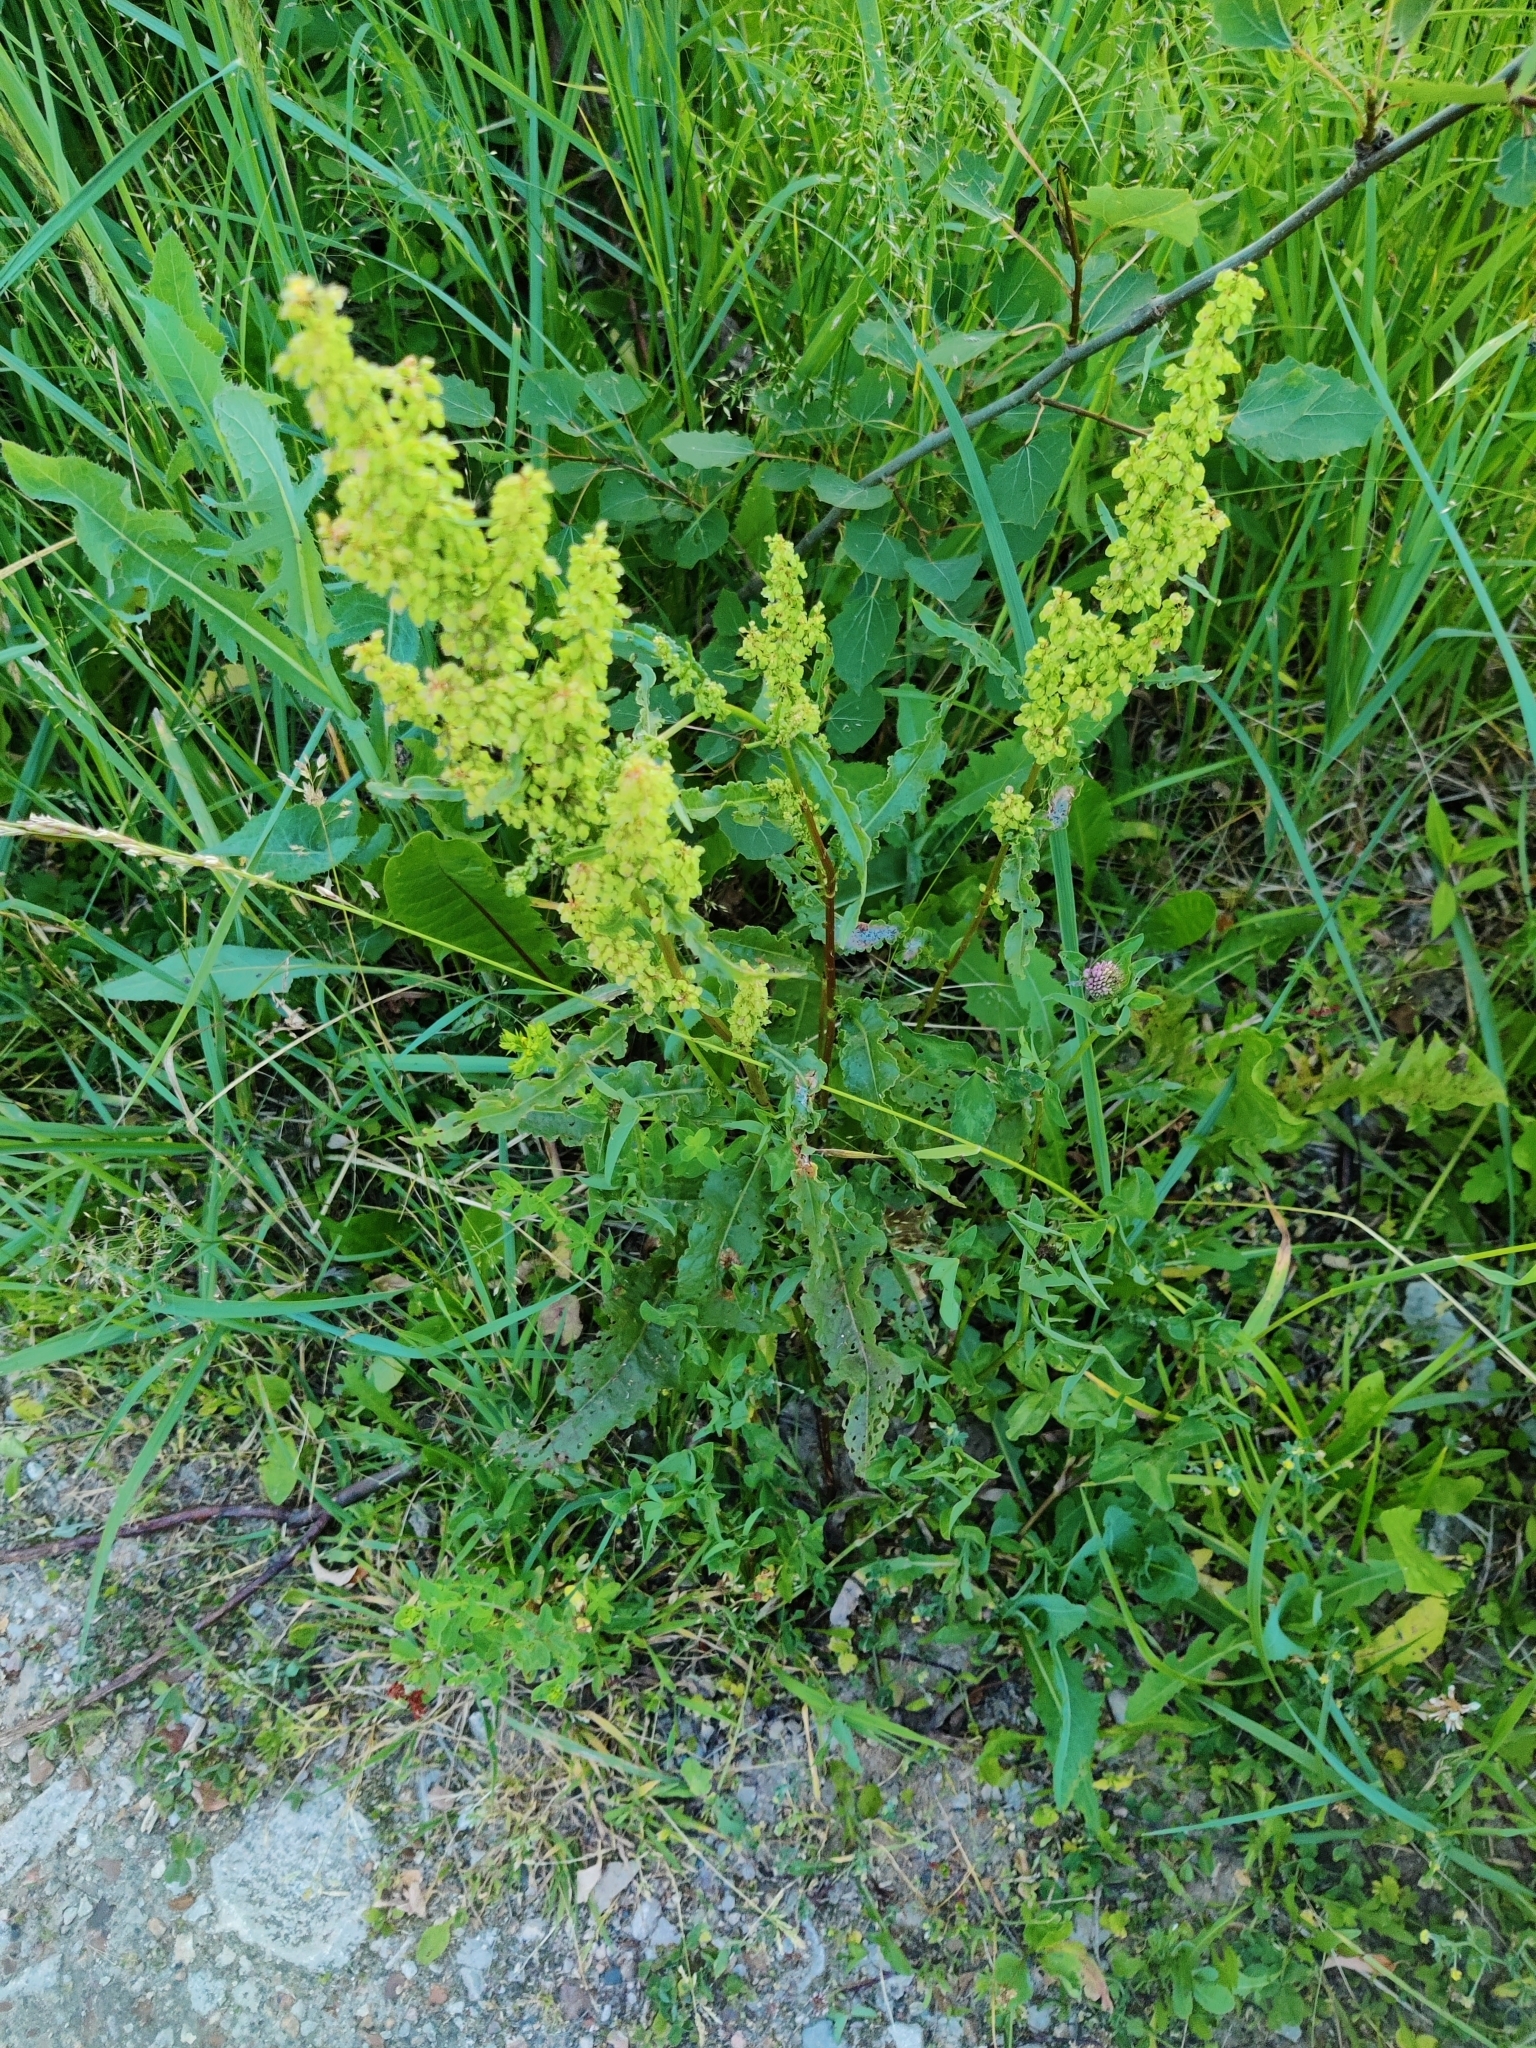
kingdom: Plantae
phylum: Tracheophyta
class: Magnoliopsida
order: Caryophyllales
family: Polygonaceae
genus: Rumex
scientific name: Rumex crispus
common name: Curled dock
